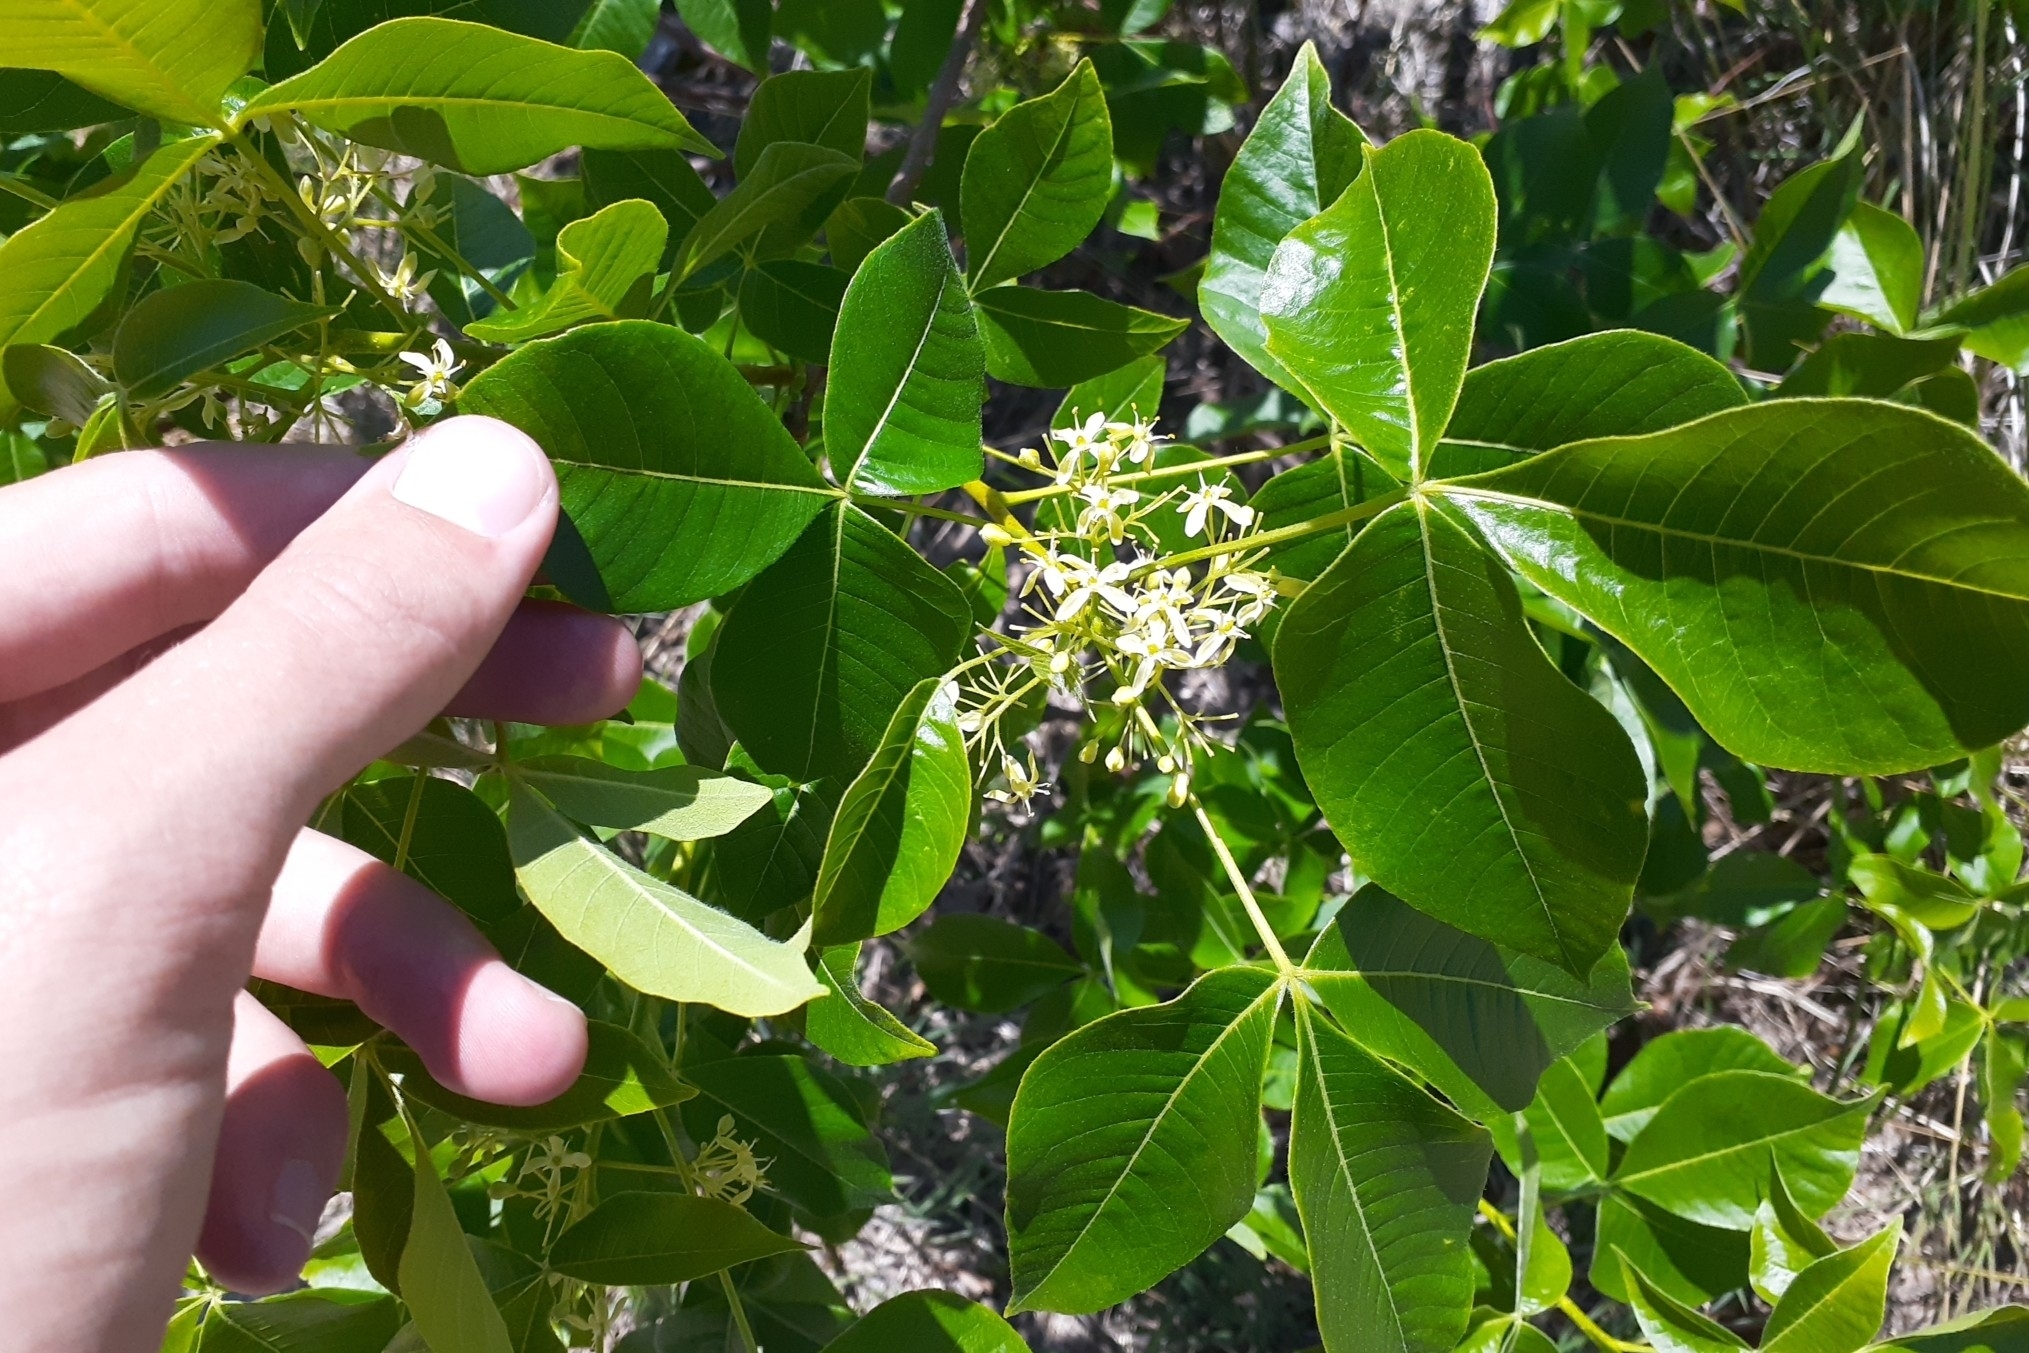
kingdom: Plantae
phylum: Tracheophyta
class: Magnoliopsida
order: Sapindales
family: Rutaceae
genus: Ptelea
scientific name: Ptelea trifoliata
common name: Common hop-tree
